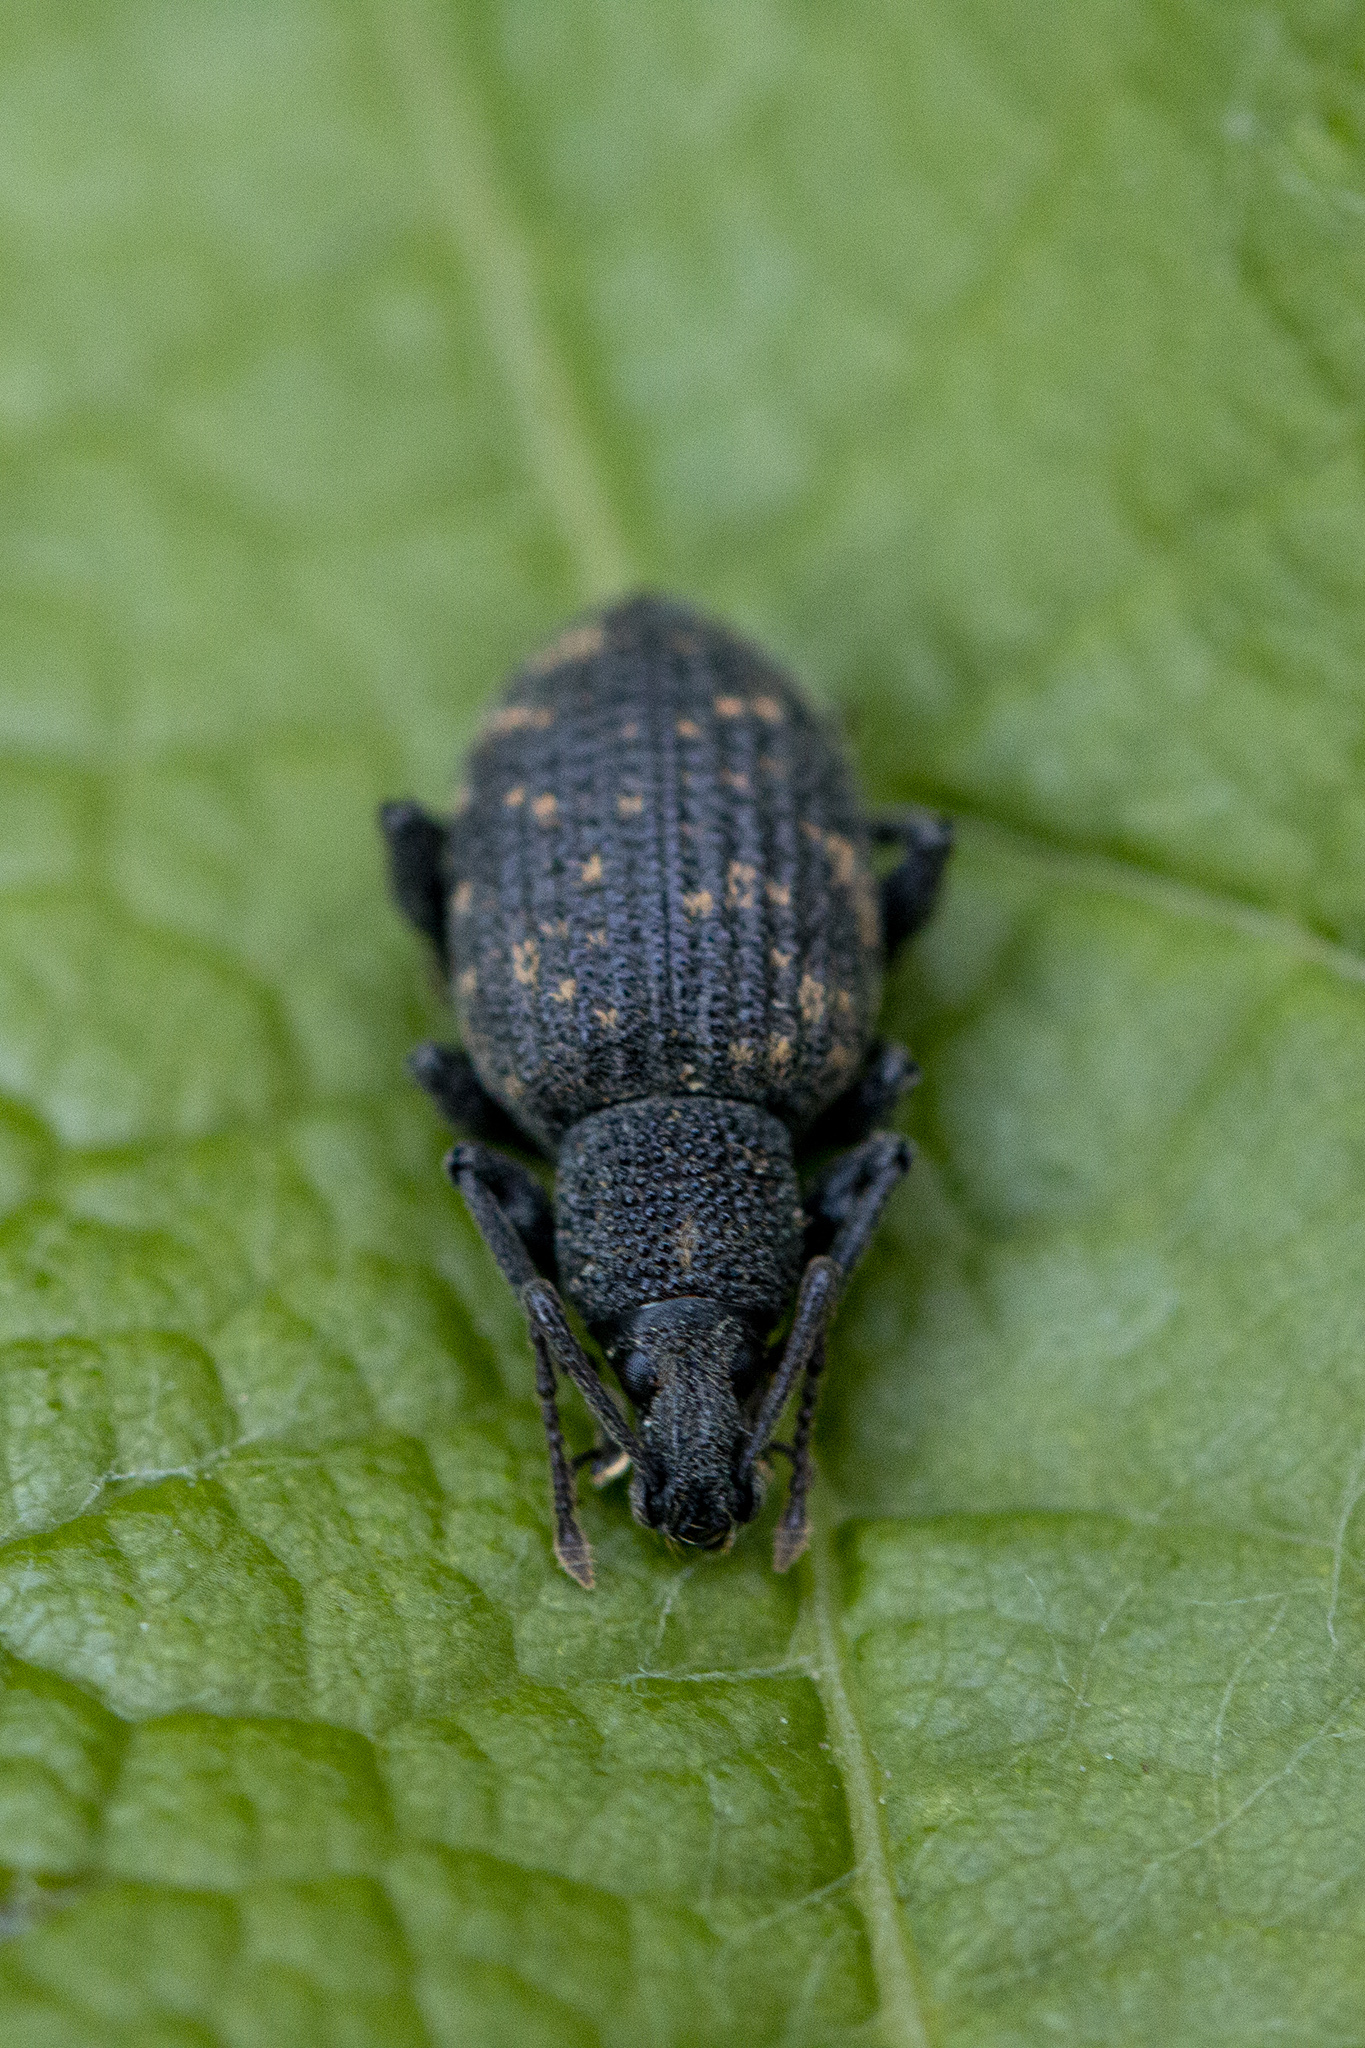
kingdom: Animalia
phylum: Arthropoda
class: Insecta
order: Coleoptera
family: Curculionidae
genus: Otiorhynchus
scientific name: Otiorhynchus sulcatus
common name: Black vine weevil
